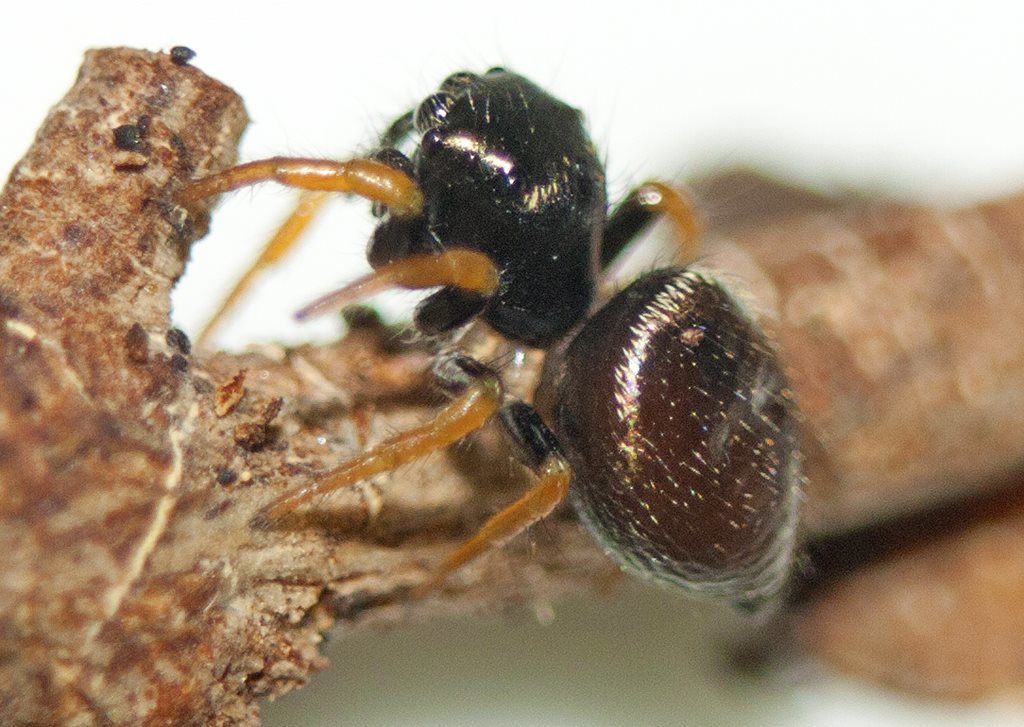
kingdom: Animalia
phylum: Arthropoda
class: Arachnida
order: Araneae
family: Salticidae
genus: Zenodorus
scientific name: Zenodorus orbiculatus
